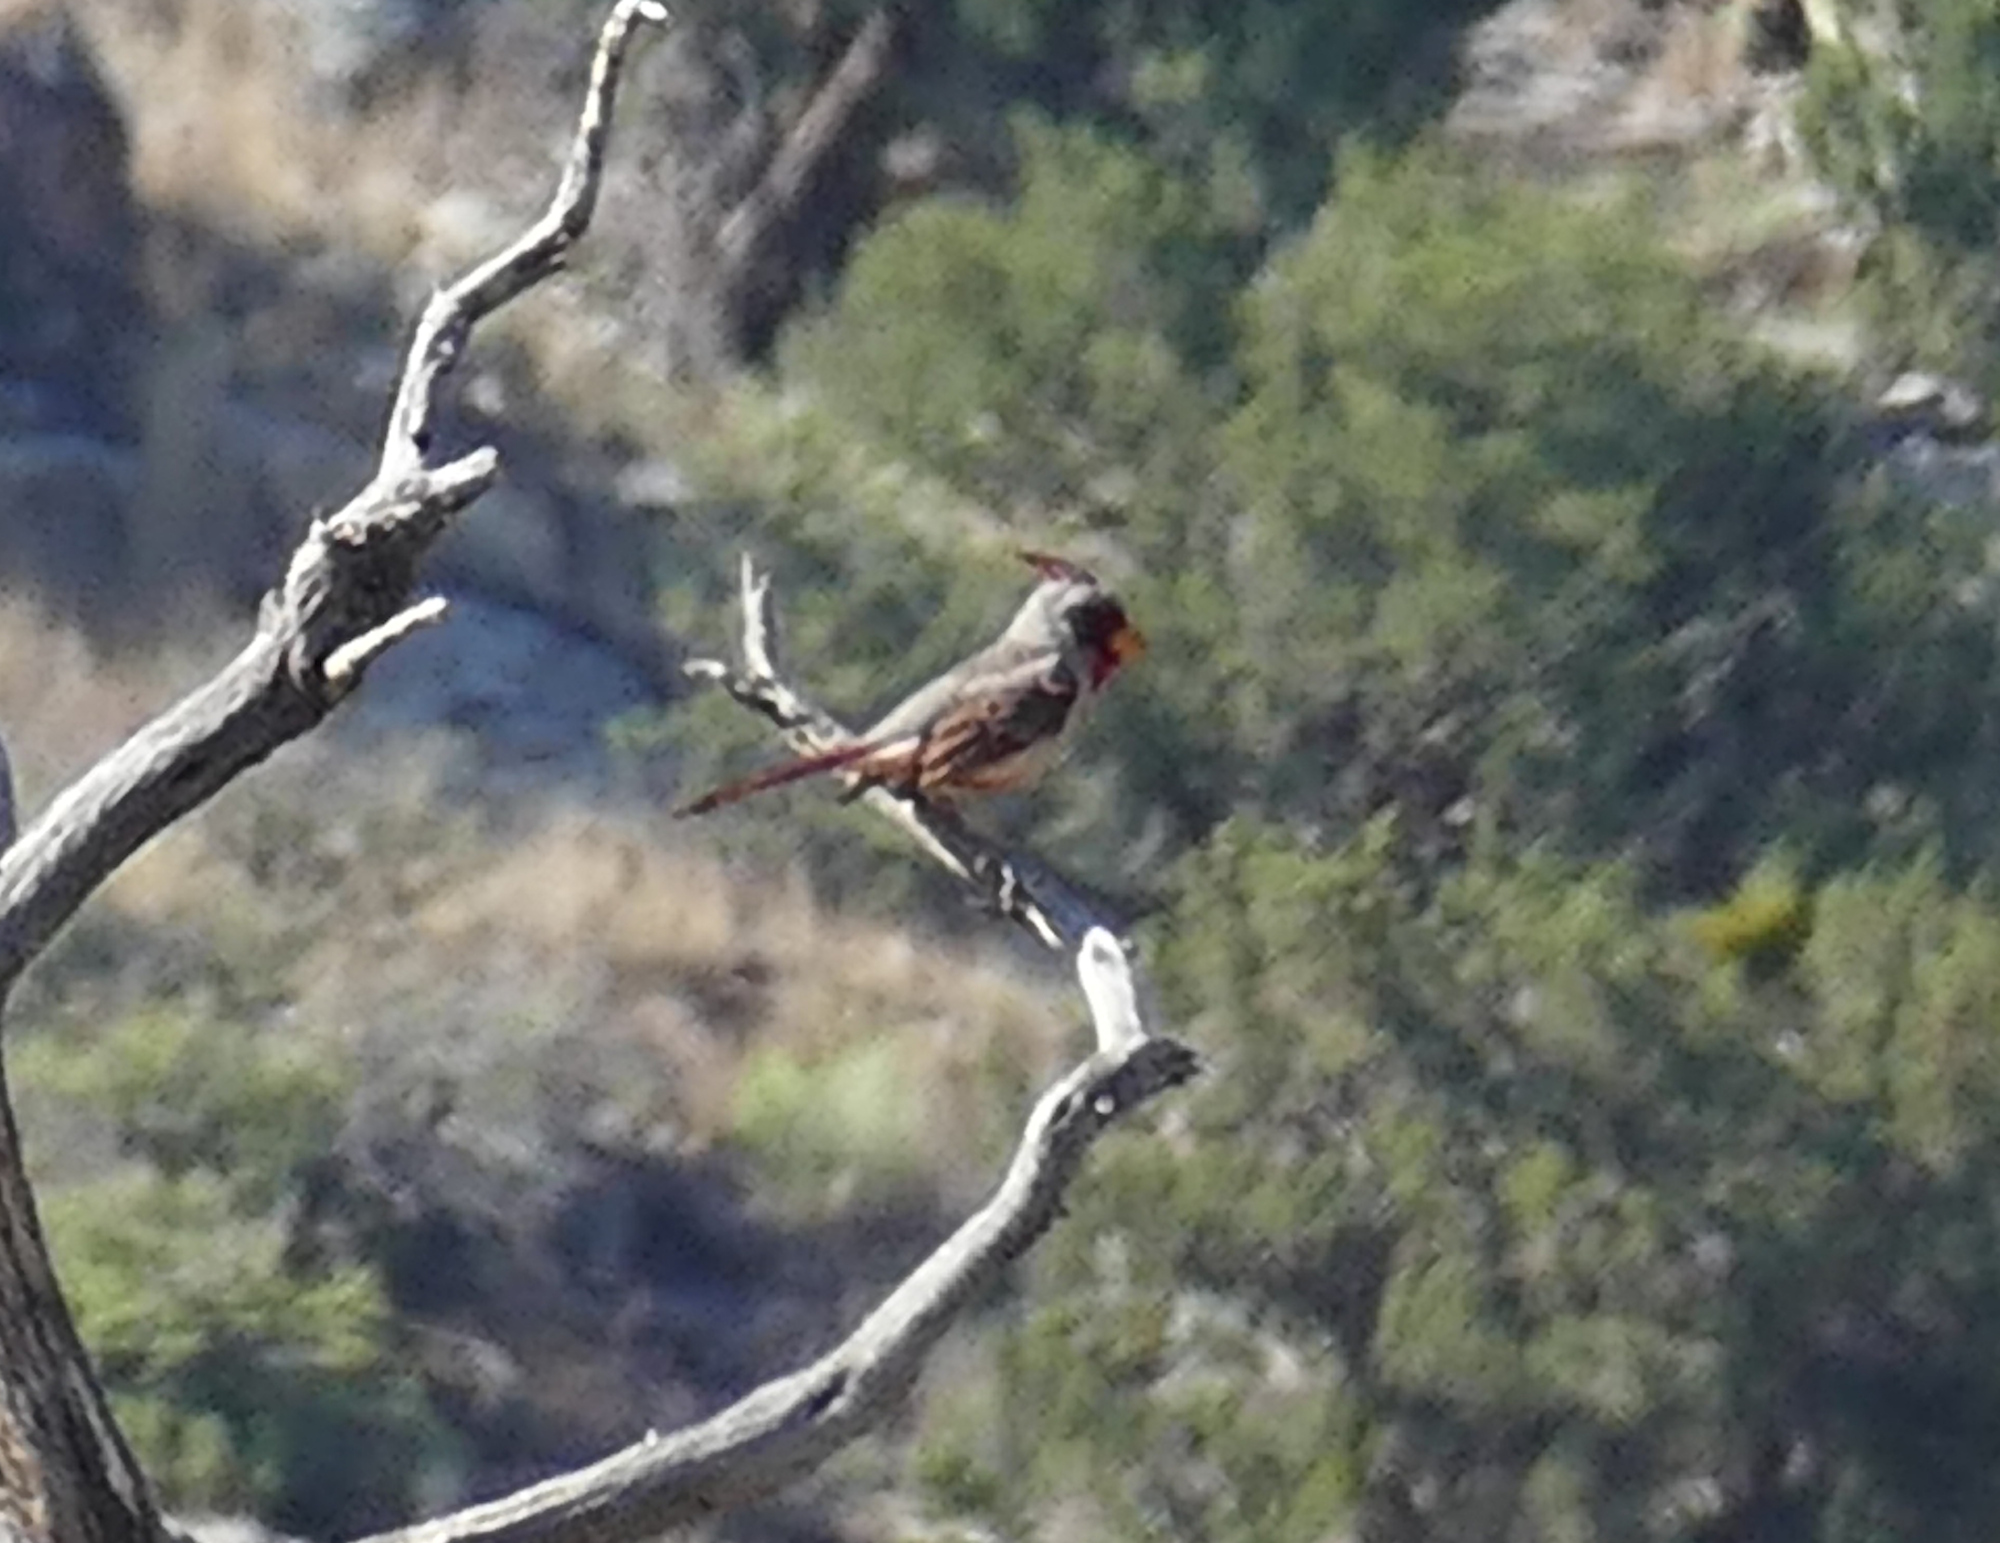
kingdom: Animalia
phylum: Chordata
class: Aves
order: Passeriformes
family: Cardinalidae
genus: Cardinalis
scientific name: Cardinalis sinuatus
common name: Pyrrhuloxia
